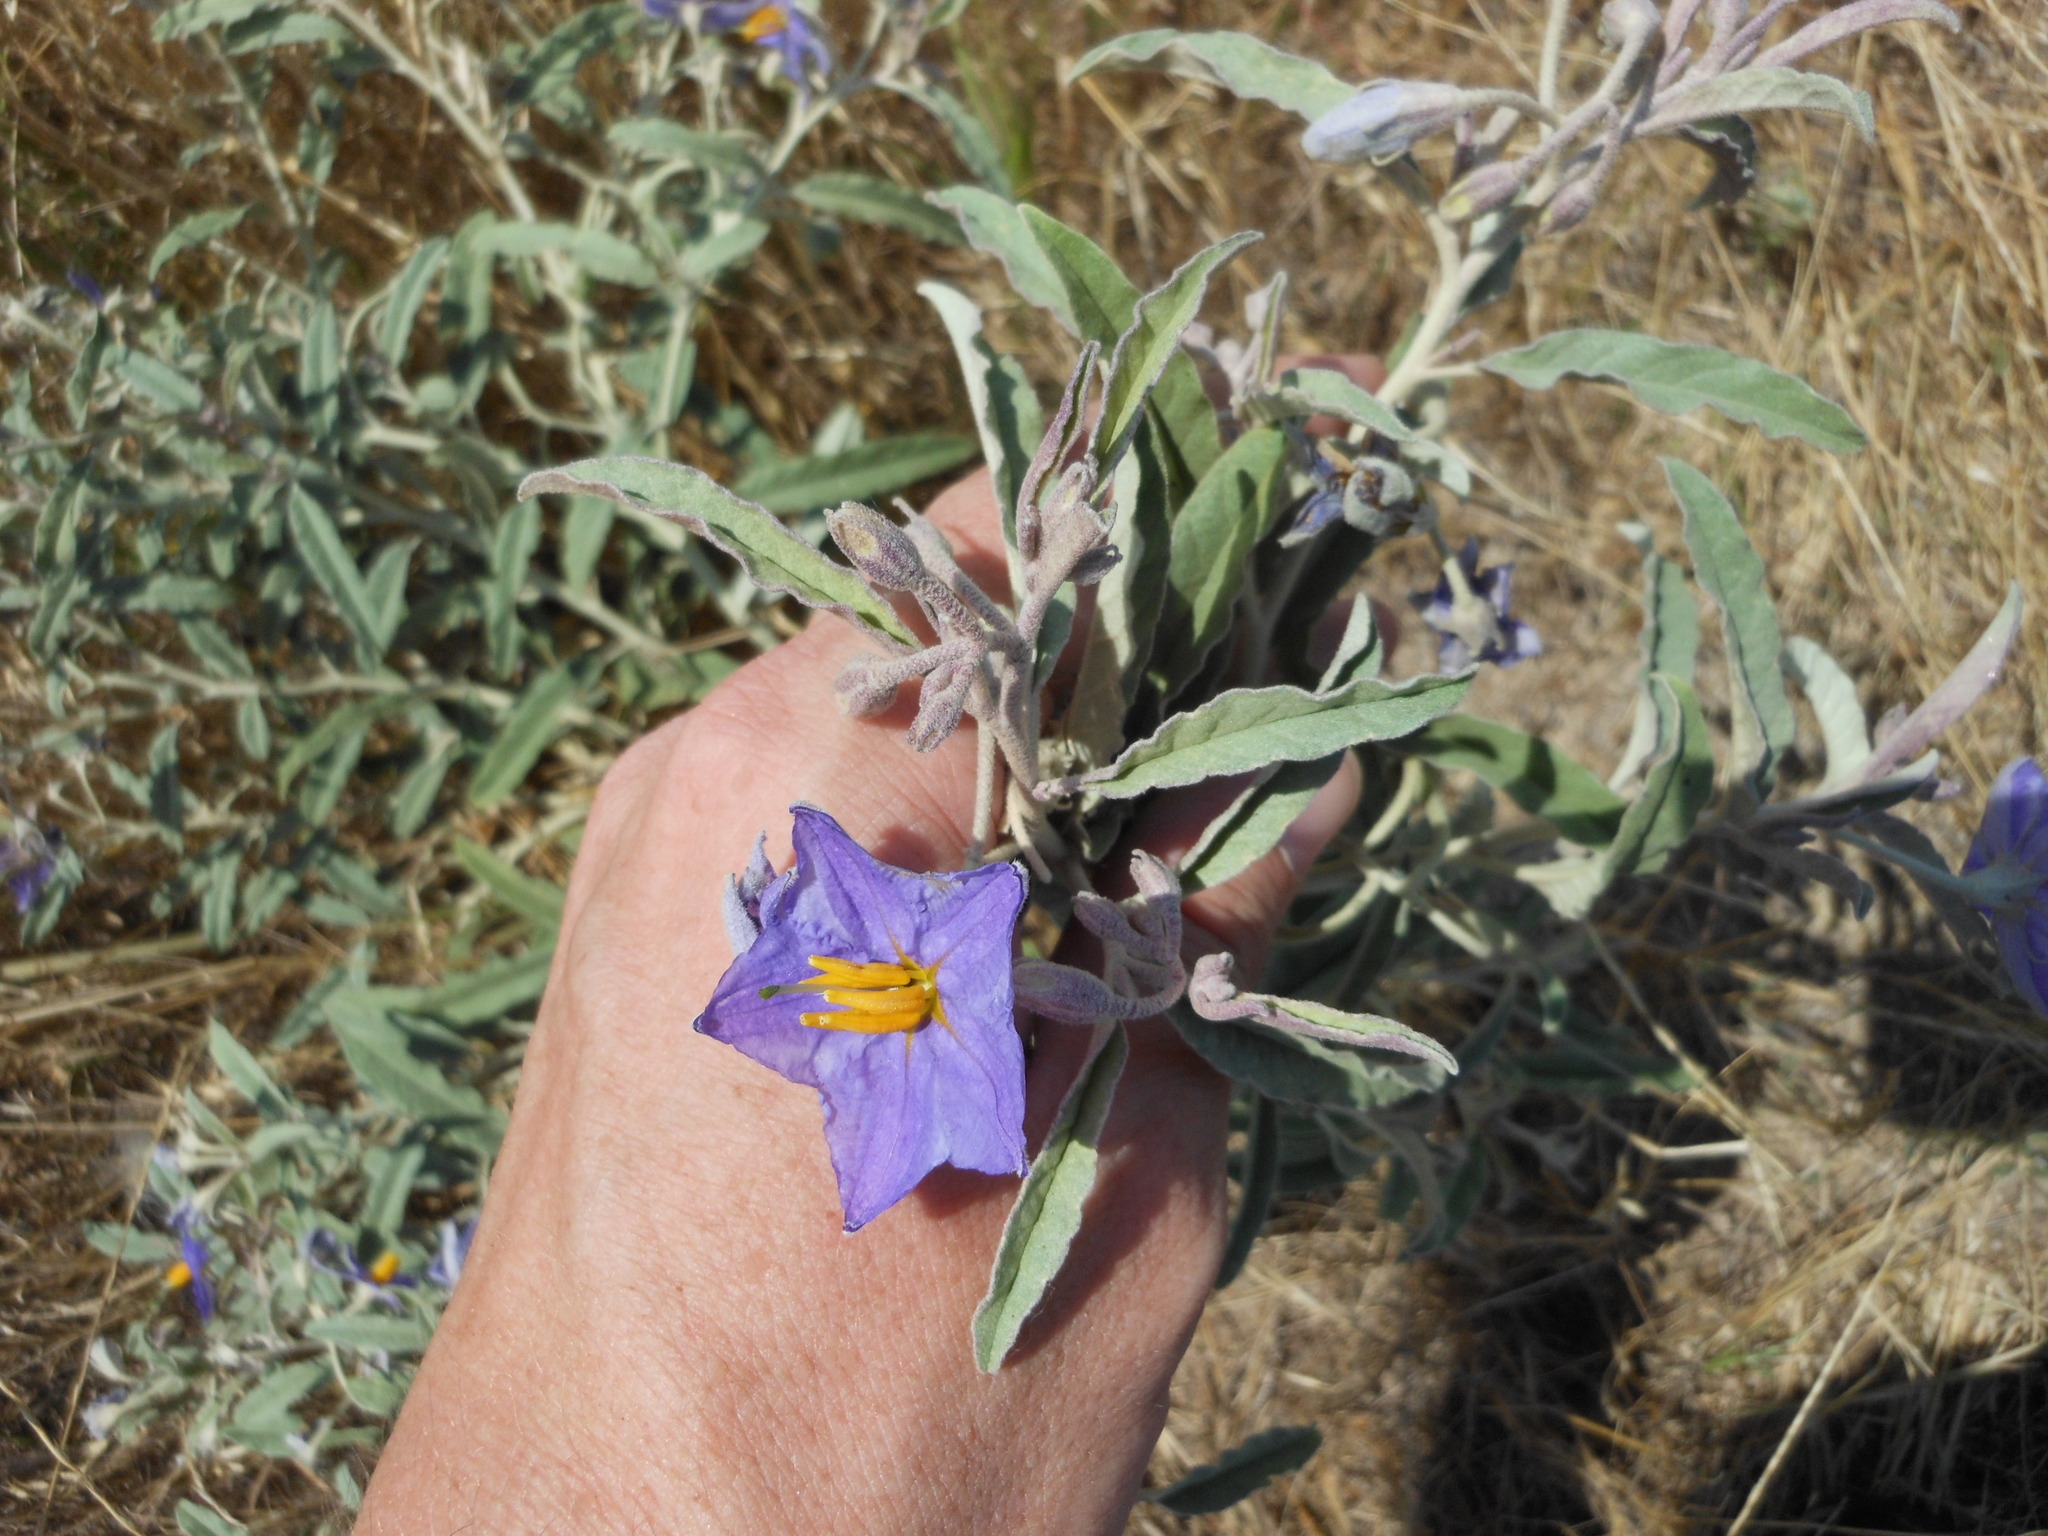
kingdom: Plantae
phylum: Tracheophyta
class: Magnoliopsida
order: Solanales
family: Solanaceae
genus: Solanum
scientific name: Solanum elaeagnifolium
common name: Silverleaf nightshade
